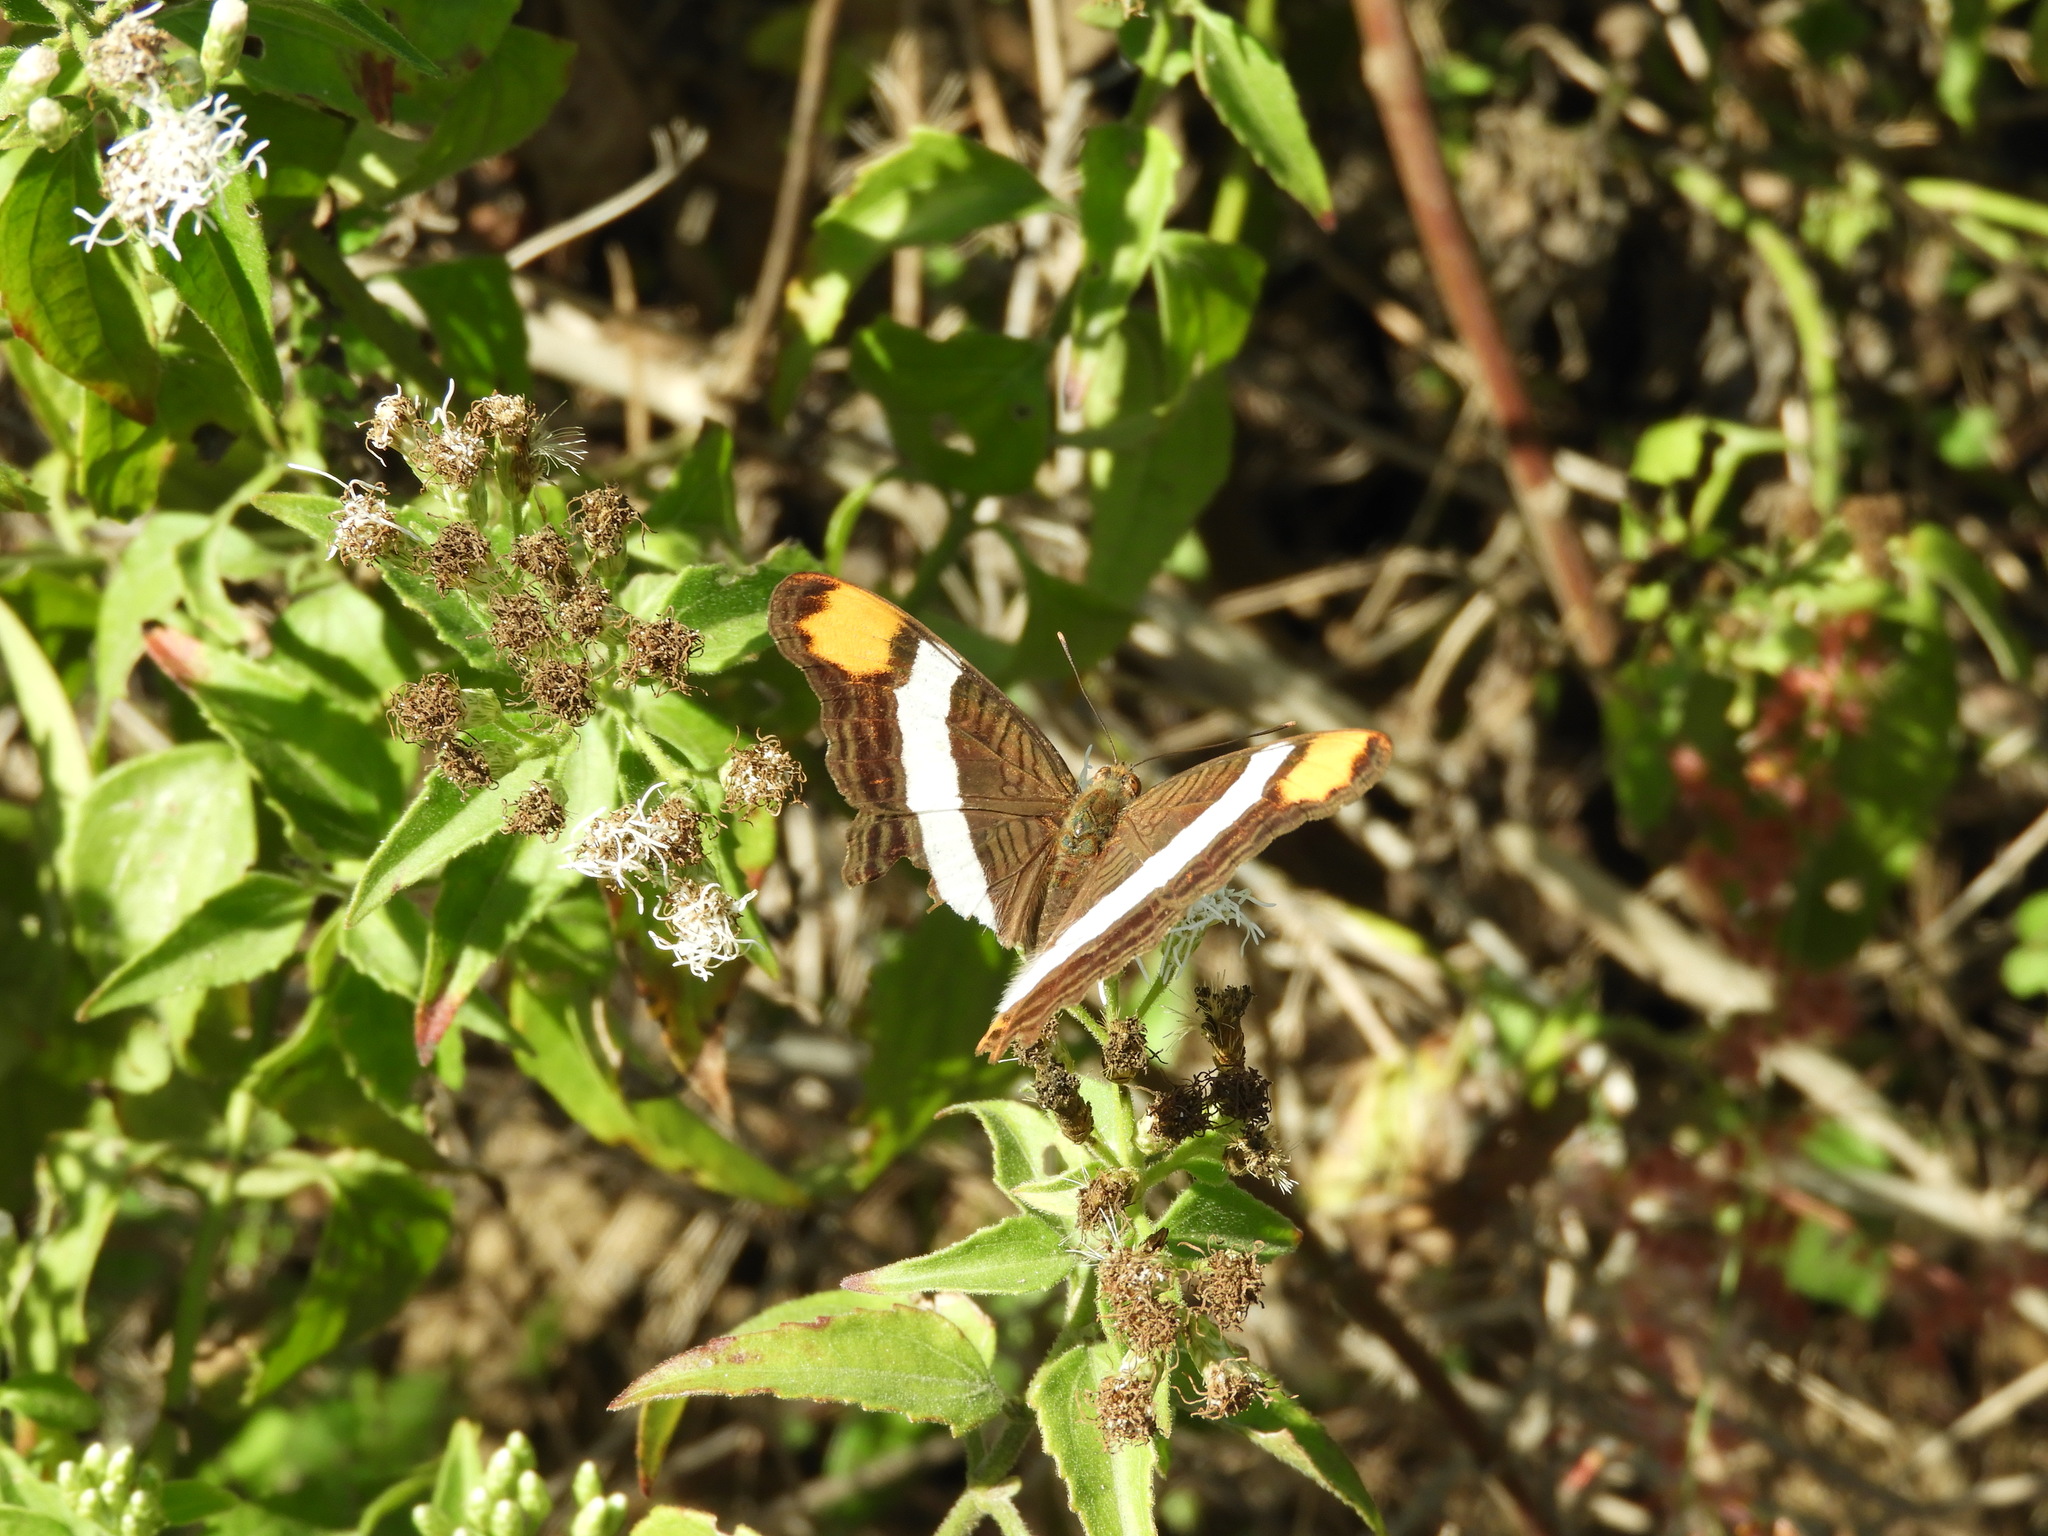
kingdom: Animalia
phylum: Arthropoda
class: Insecta
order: Lepidoptera
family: Nymphalidae
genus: Limenitis
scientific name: Limenitis fessonia
